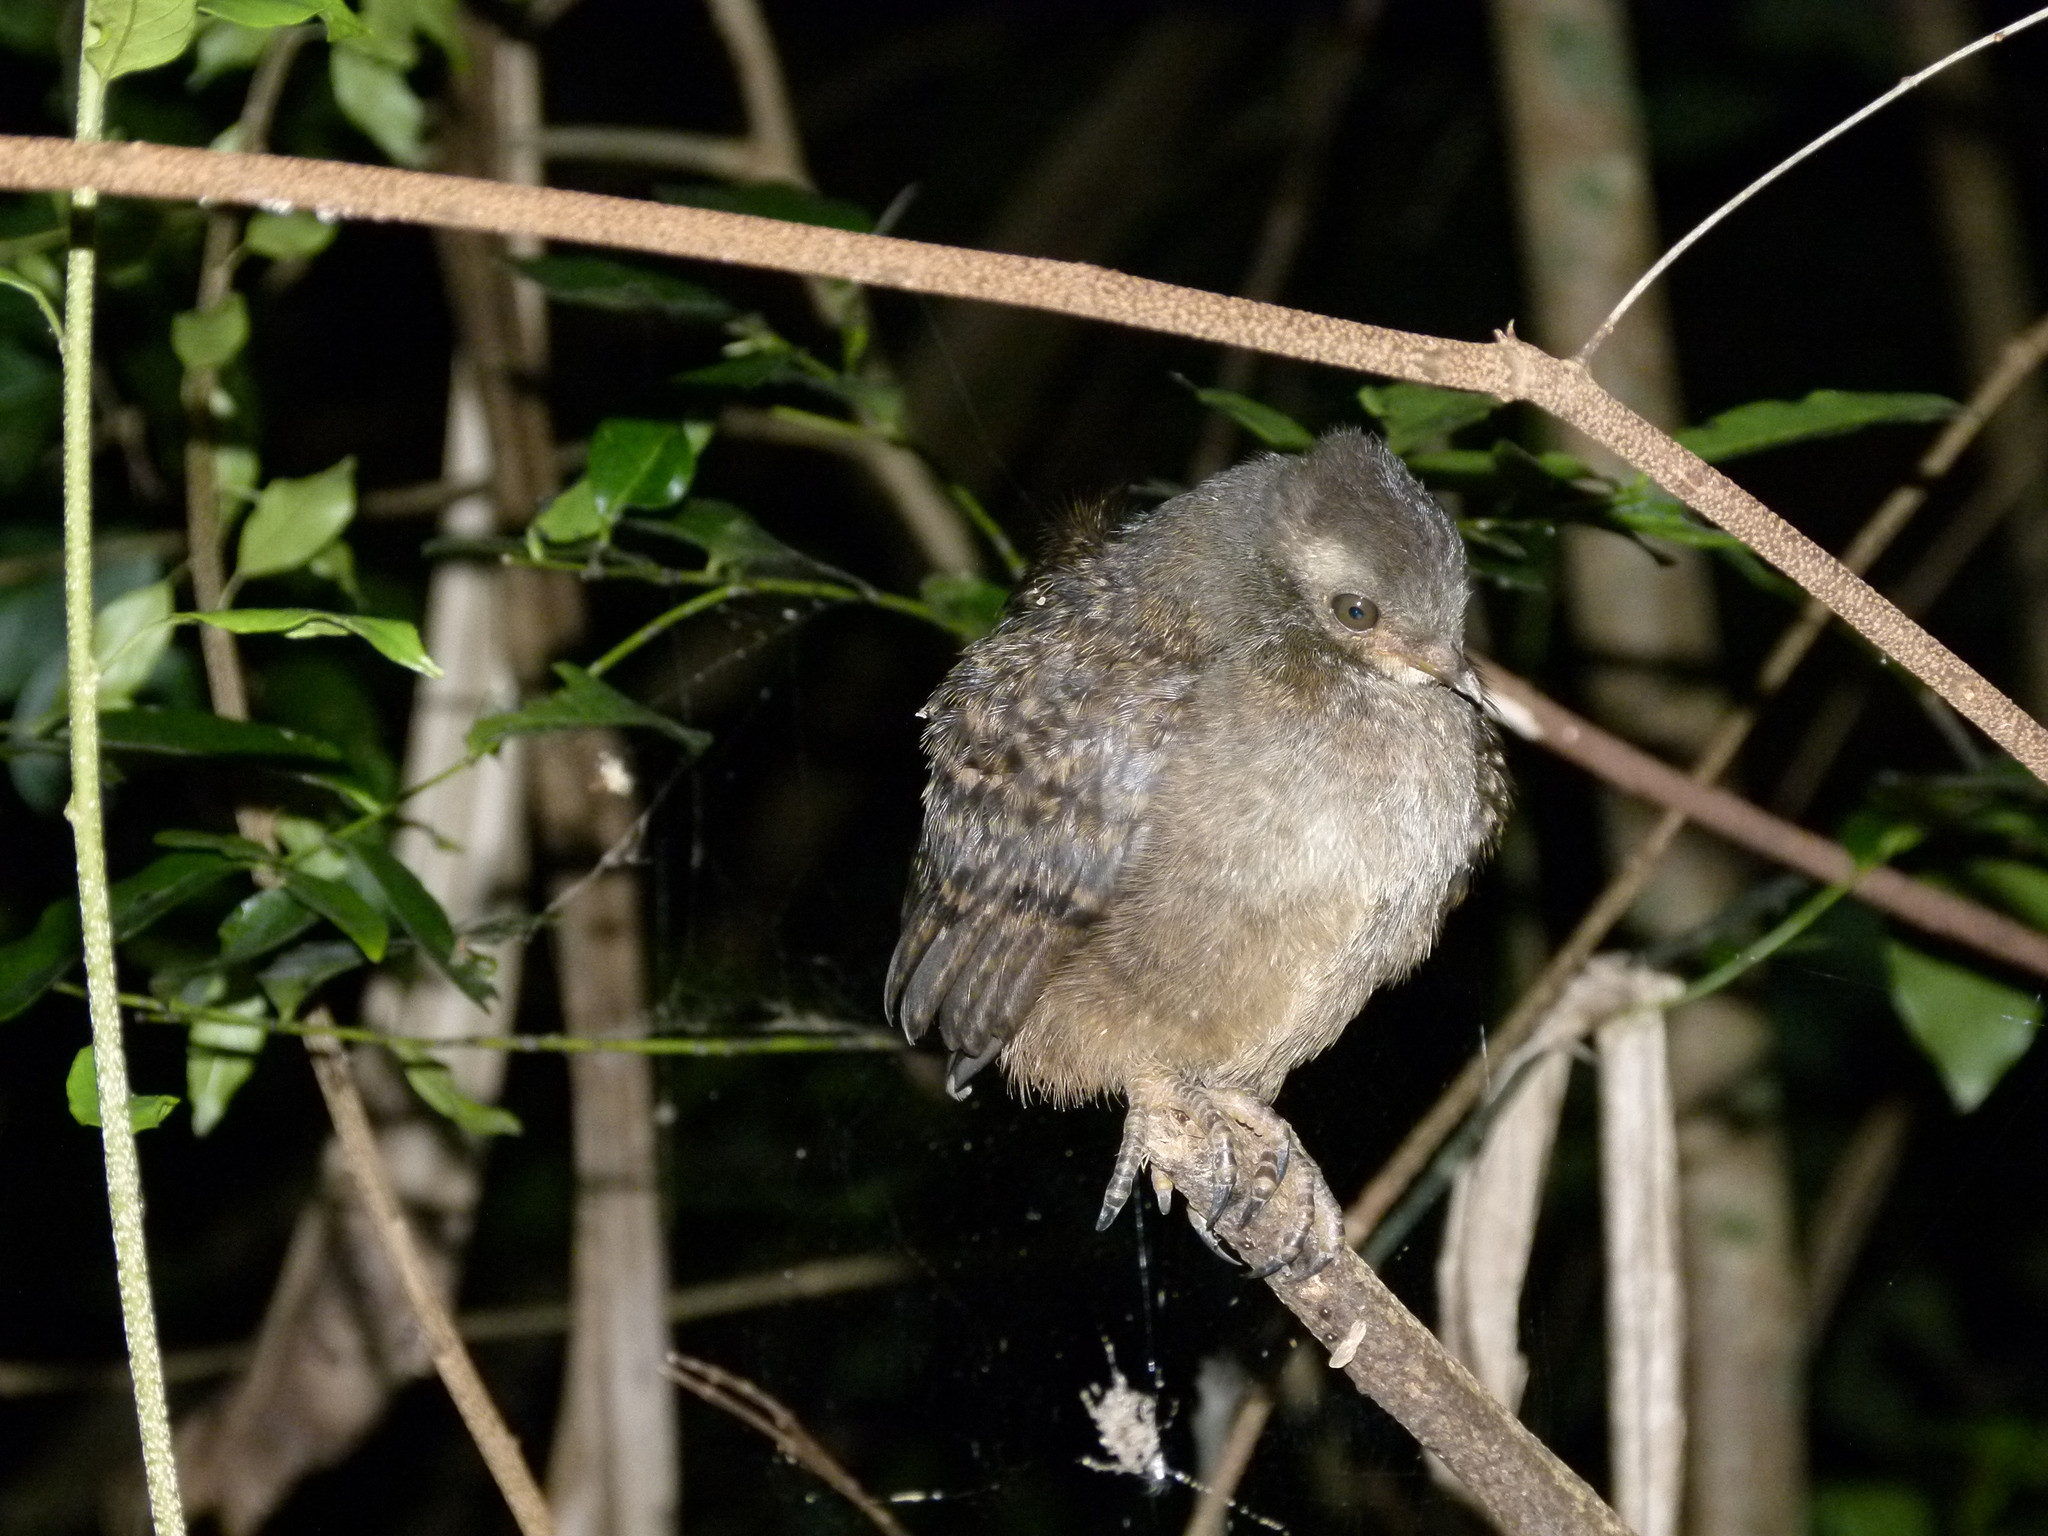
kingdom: Animalia
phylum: Chordata
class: Aves
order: Galliformes
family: Megapodiidae
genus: Megapodius
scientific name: Megapodius reinwardt
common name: Orange-footed scrubfowl
